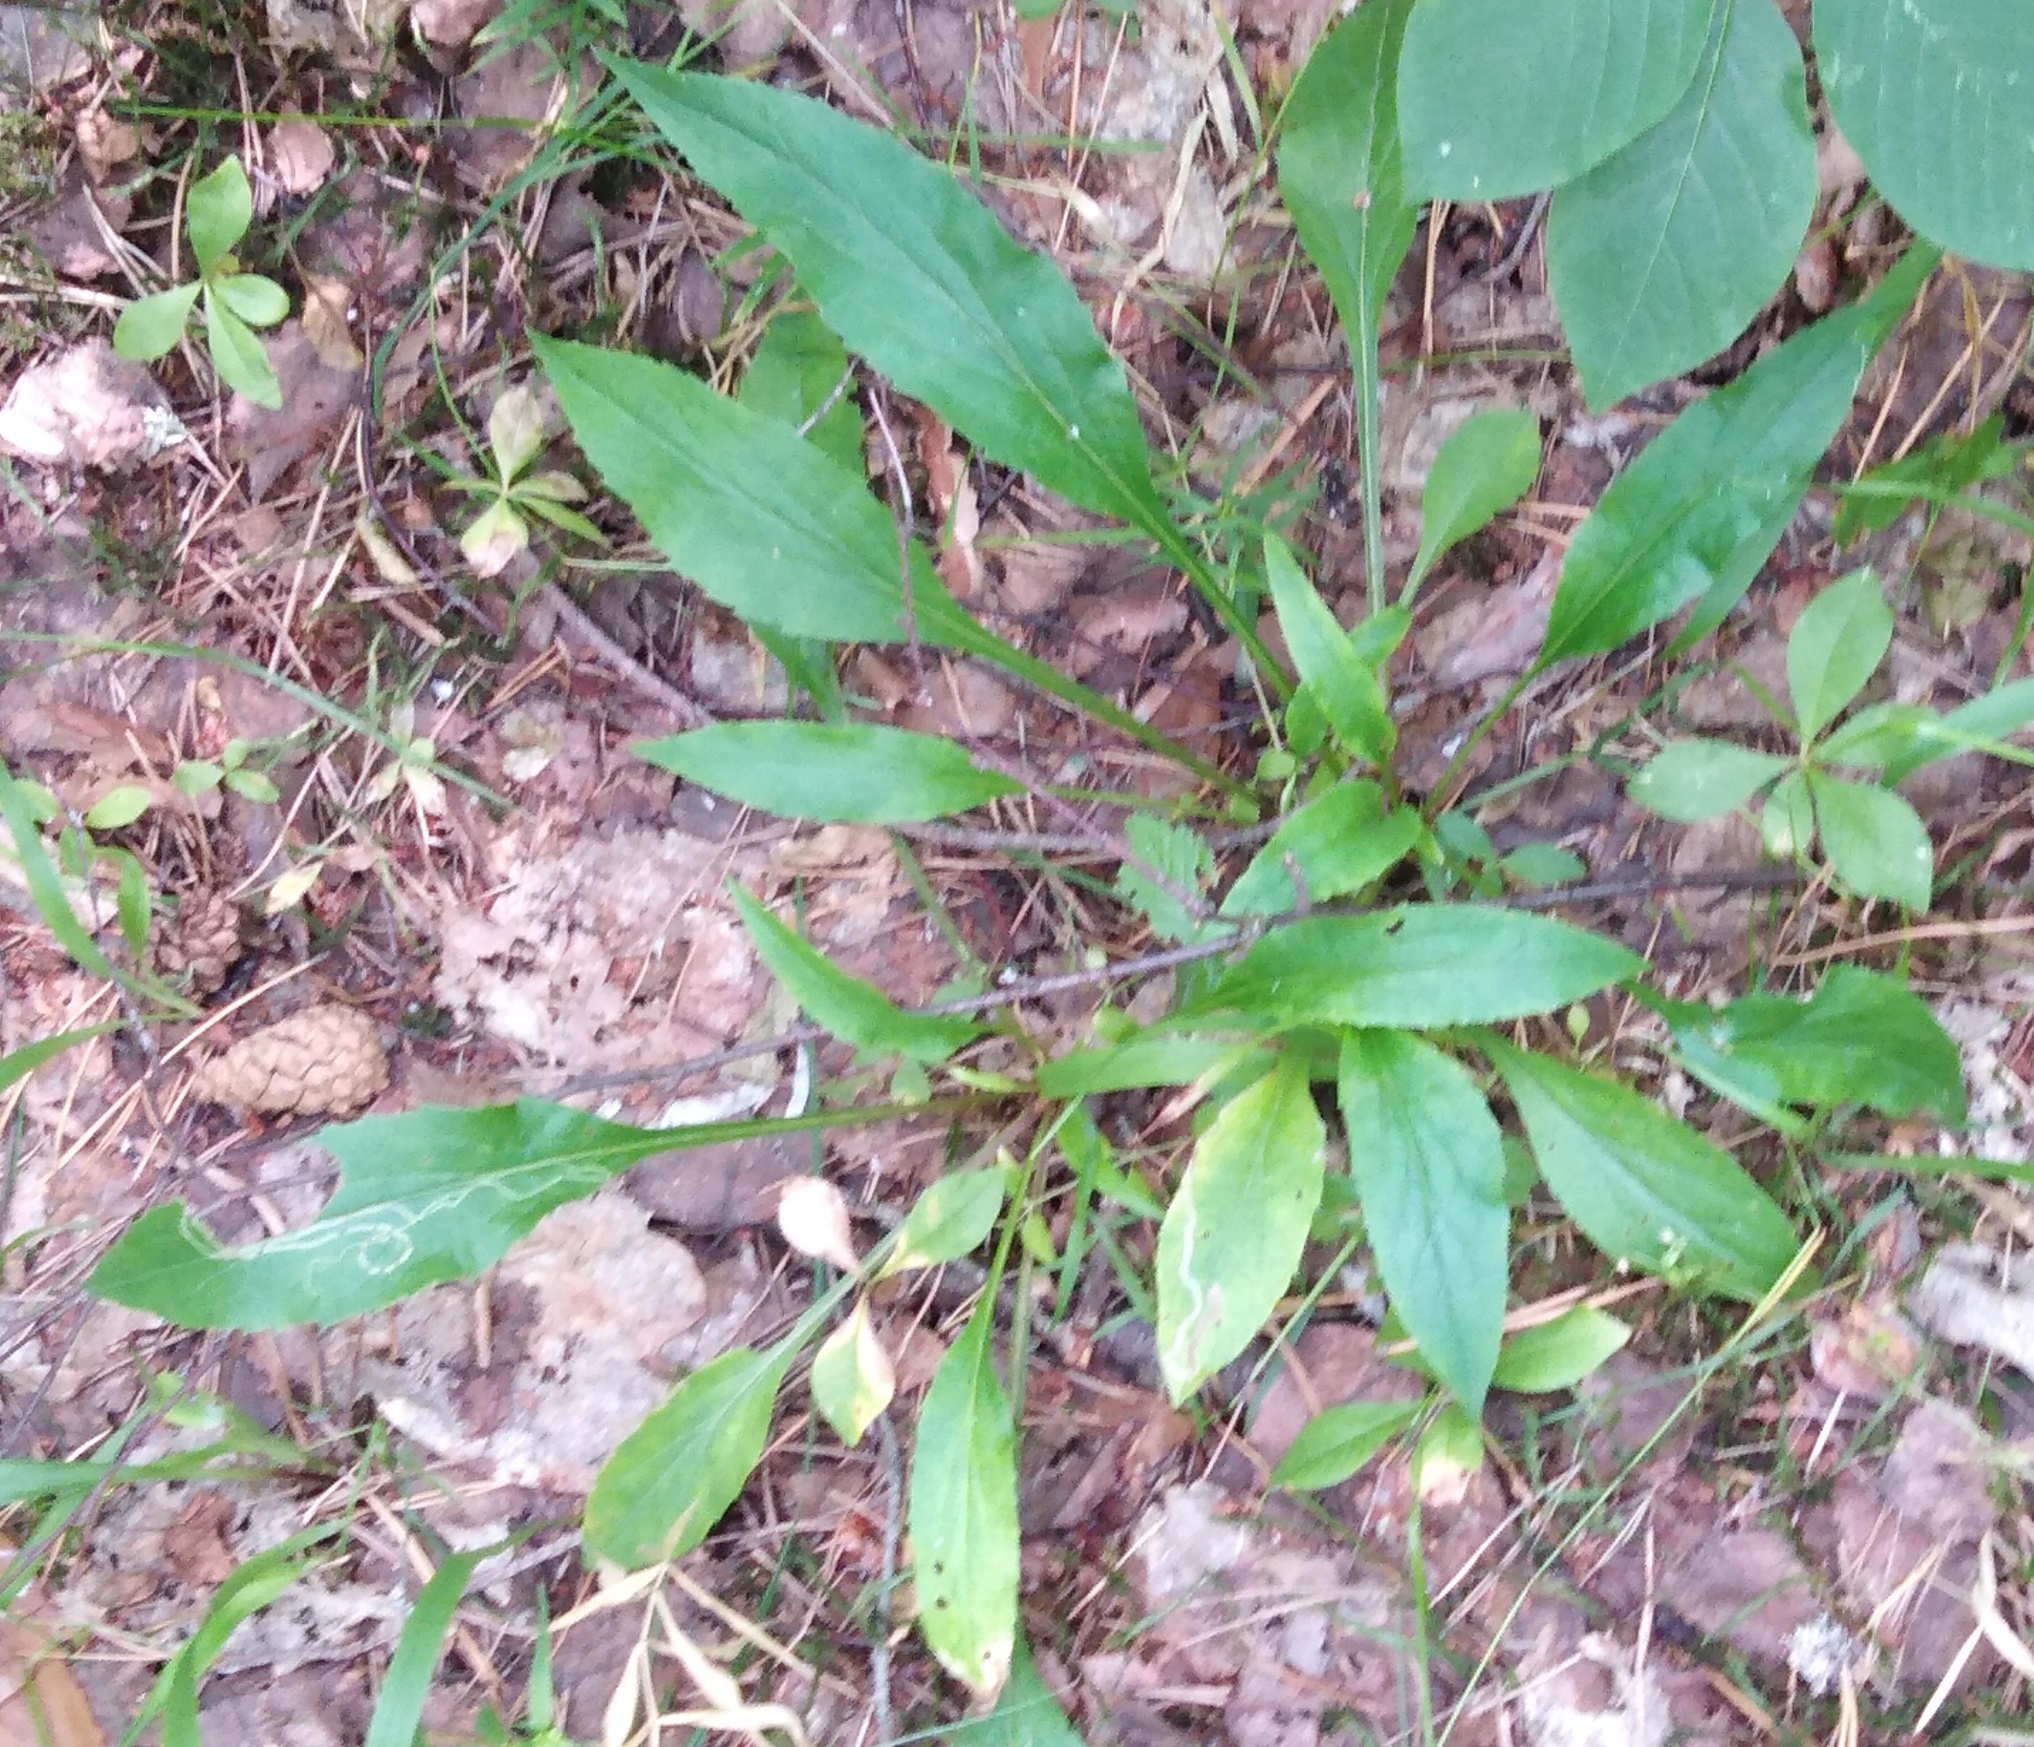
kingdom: Plantae
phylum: Tracheophyta
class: Magnoliopsida
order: Asterales
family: Asteraceae
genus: Solidago
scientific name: Solidago virgaurea
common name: Goldenrod
